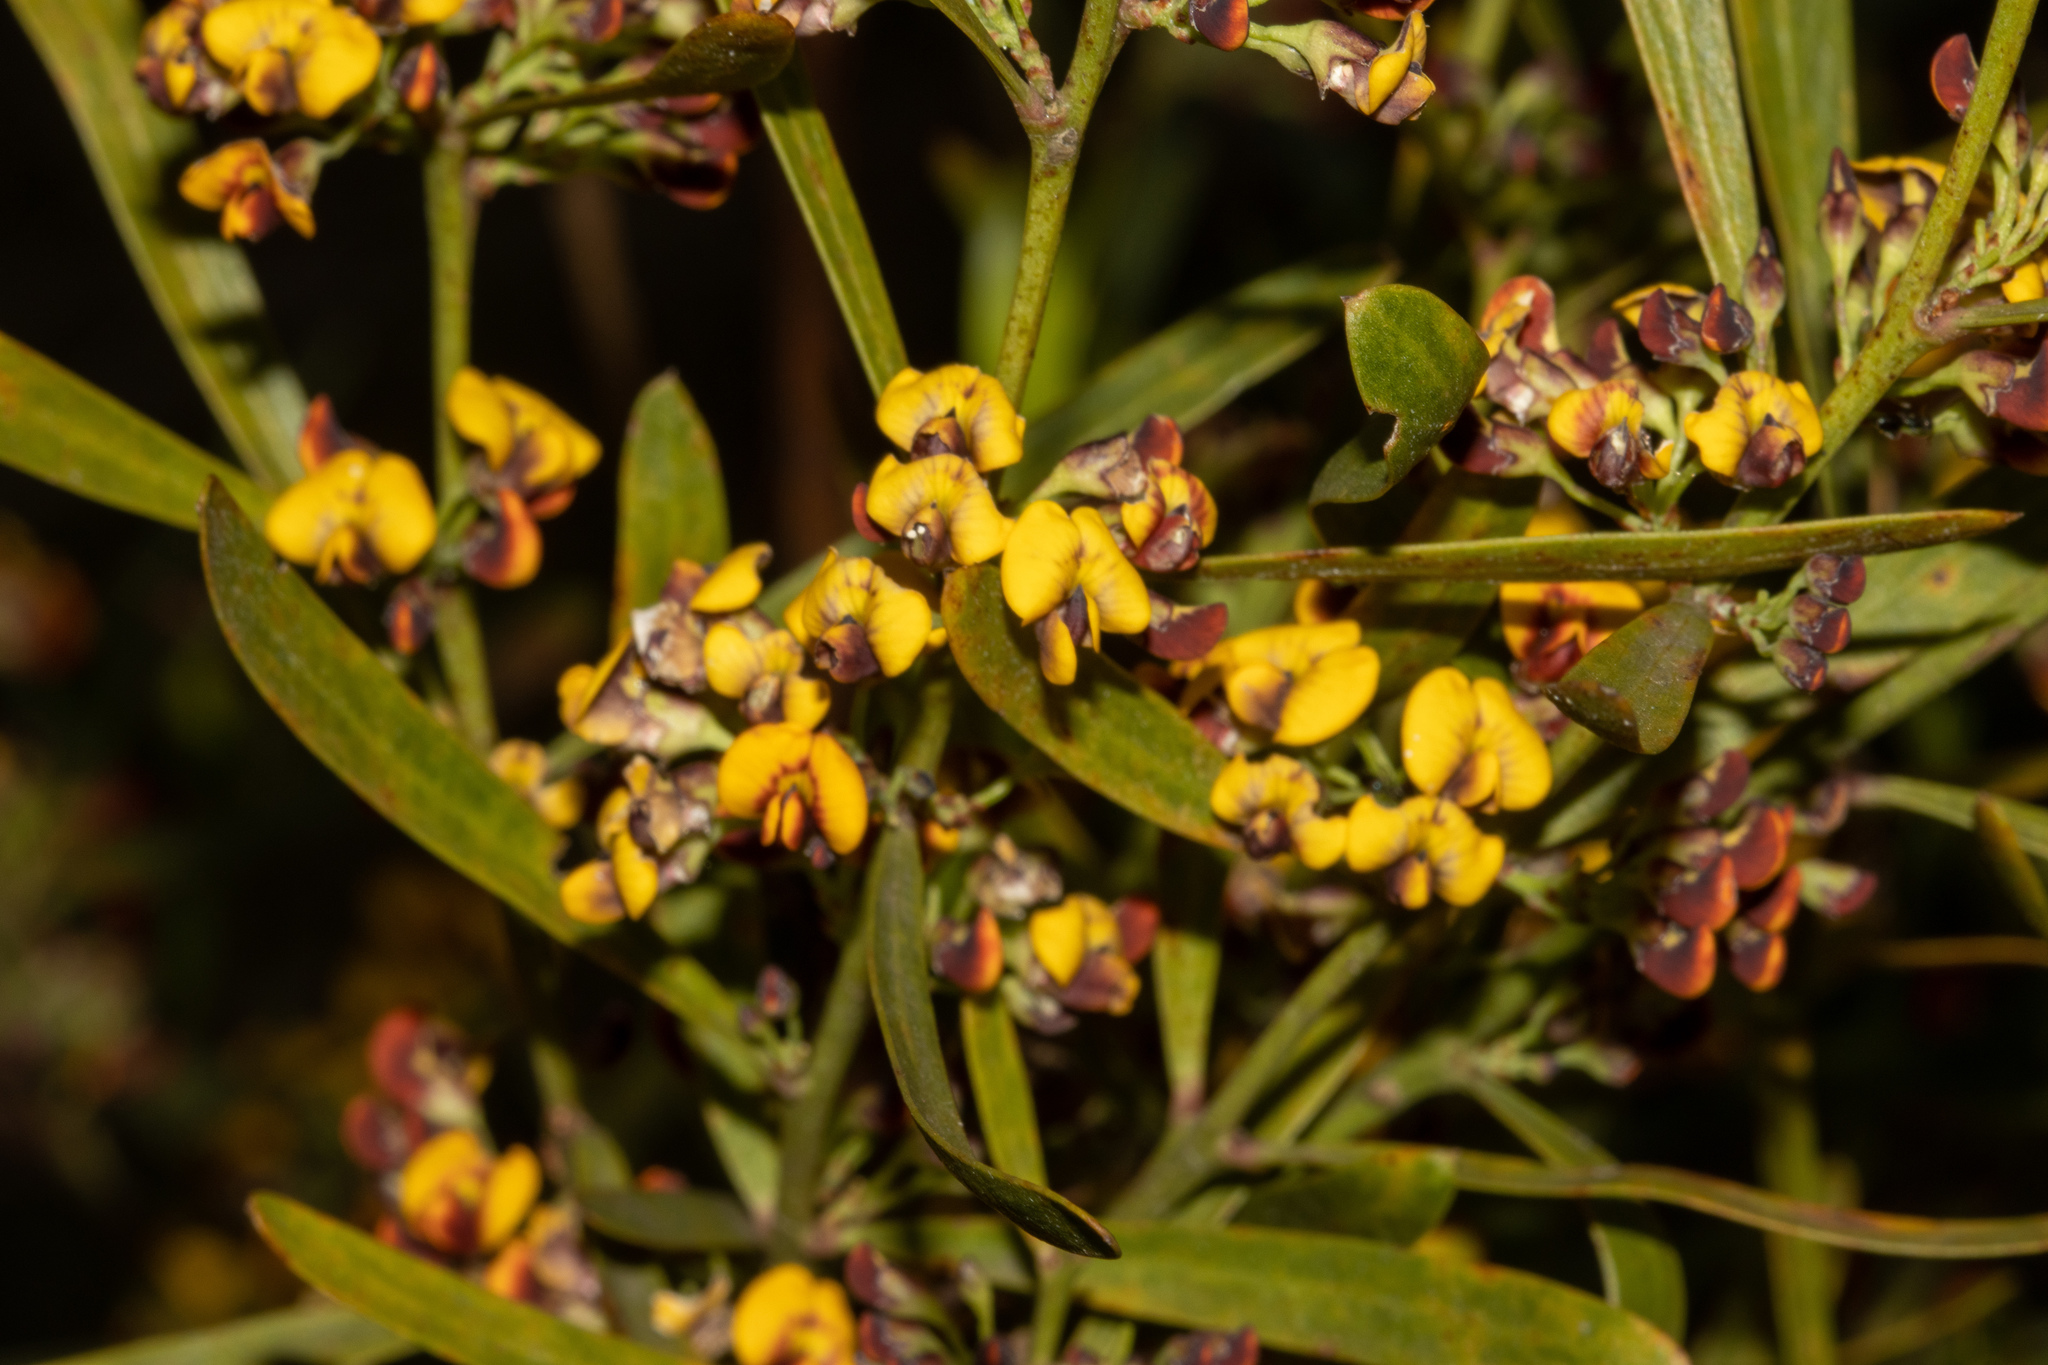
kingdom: Plantae
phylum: Tracheophyta
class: Magnoliopsida
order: Fabales
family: Fabaceae
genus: Daviesia
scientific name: Daviesia leptophylla
